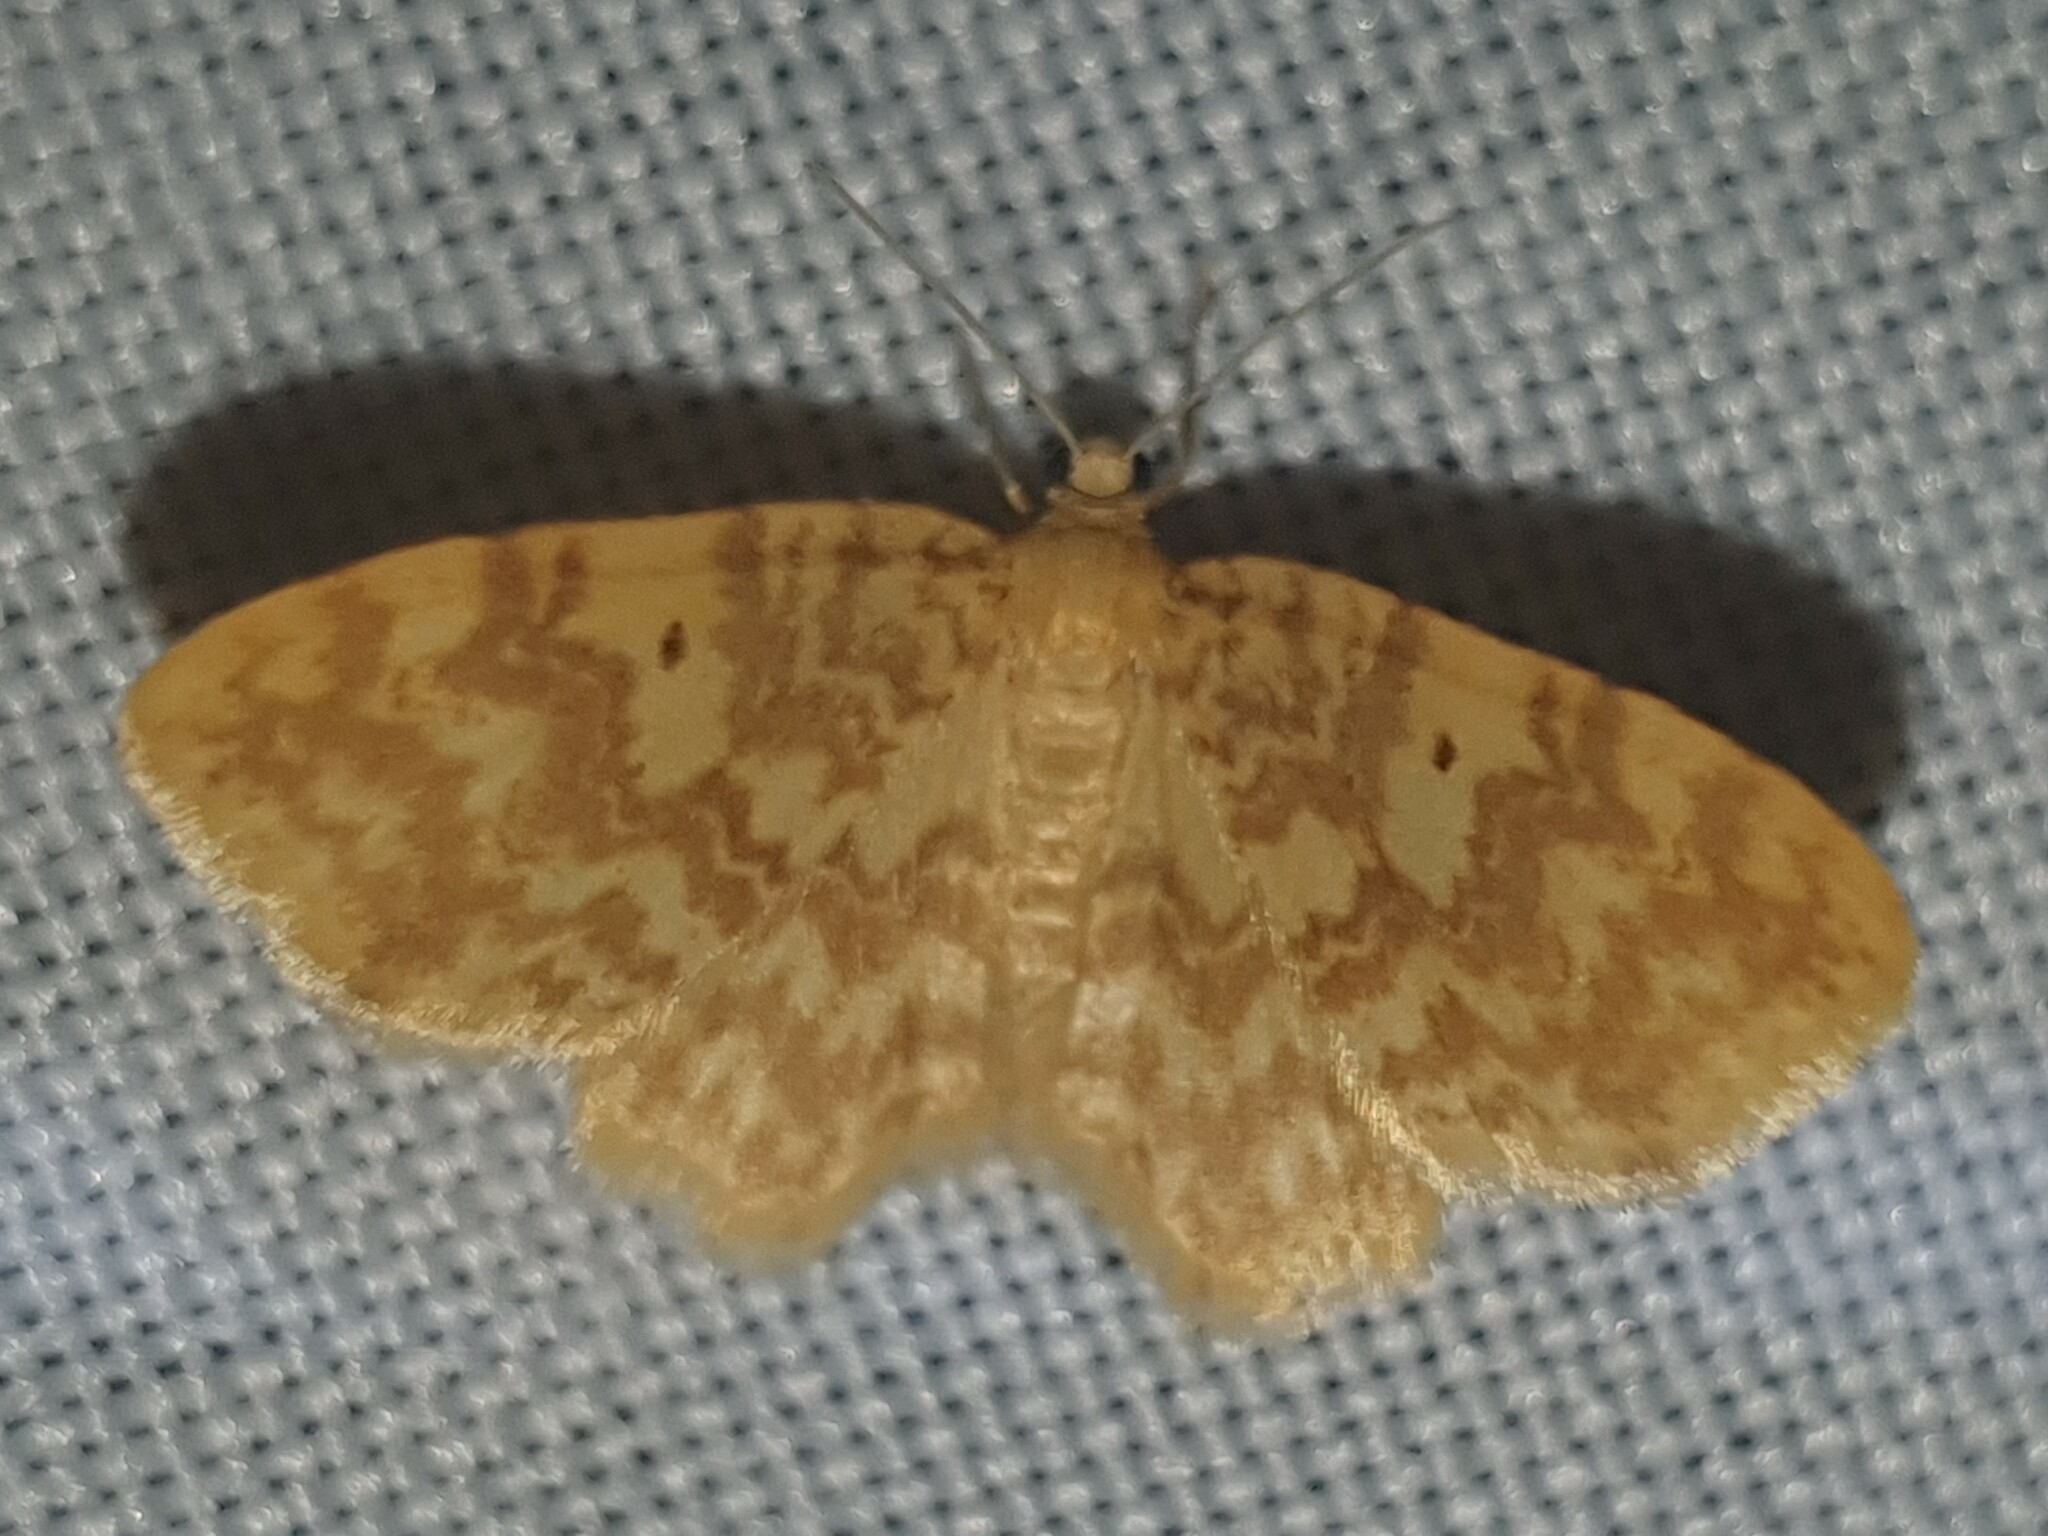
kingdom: Animalia
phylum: Arthropoda
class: Insecta
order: Lepidoptera
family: Geometridae
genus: Hydrelia
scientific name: Hydrelia flammeolaria
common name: Small yellow wave
